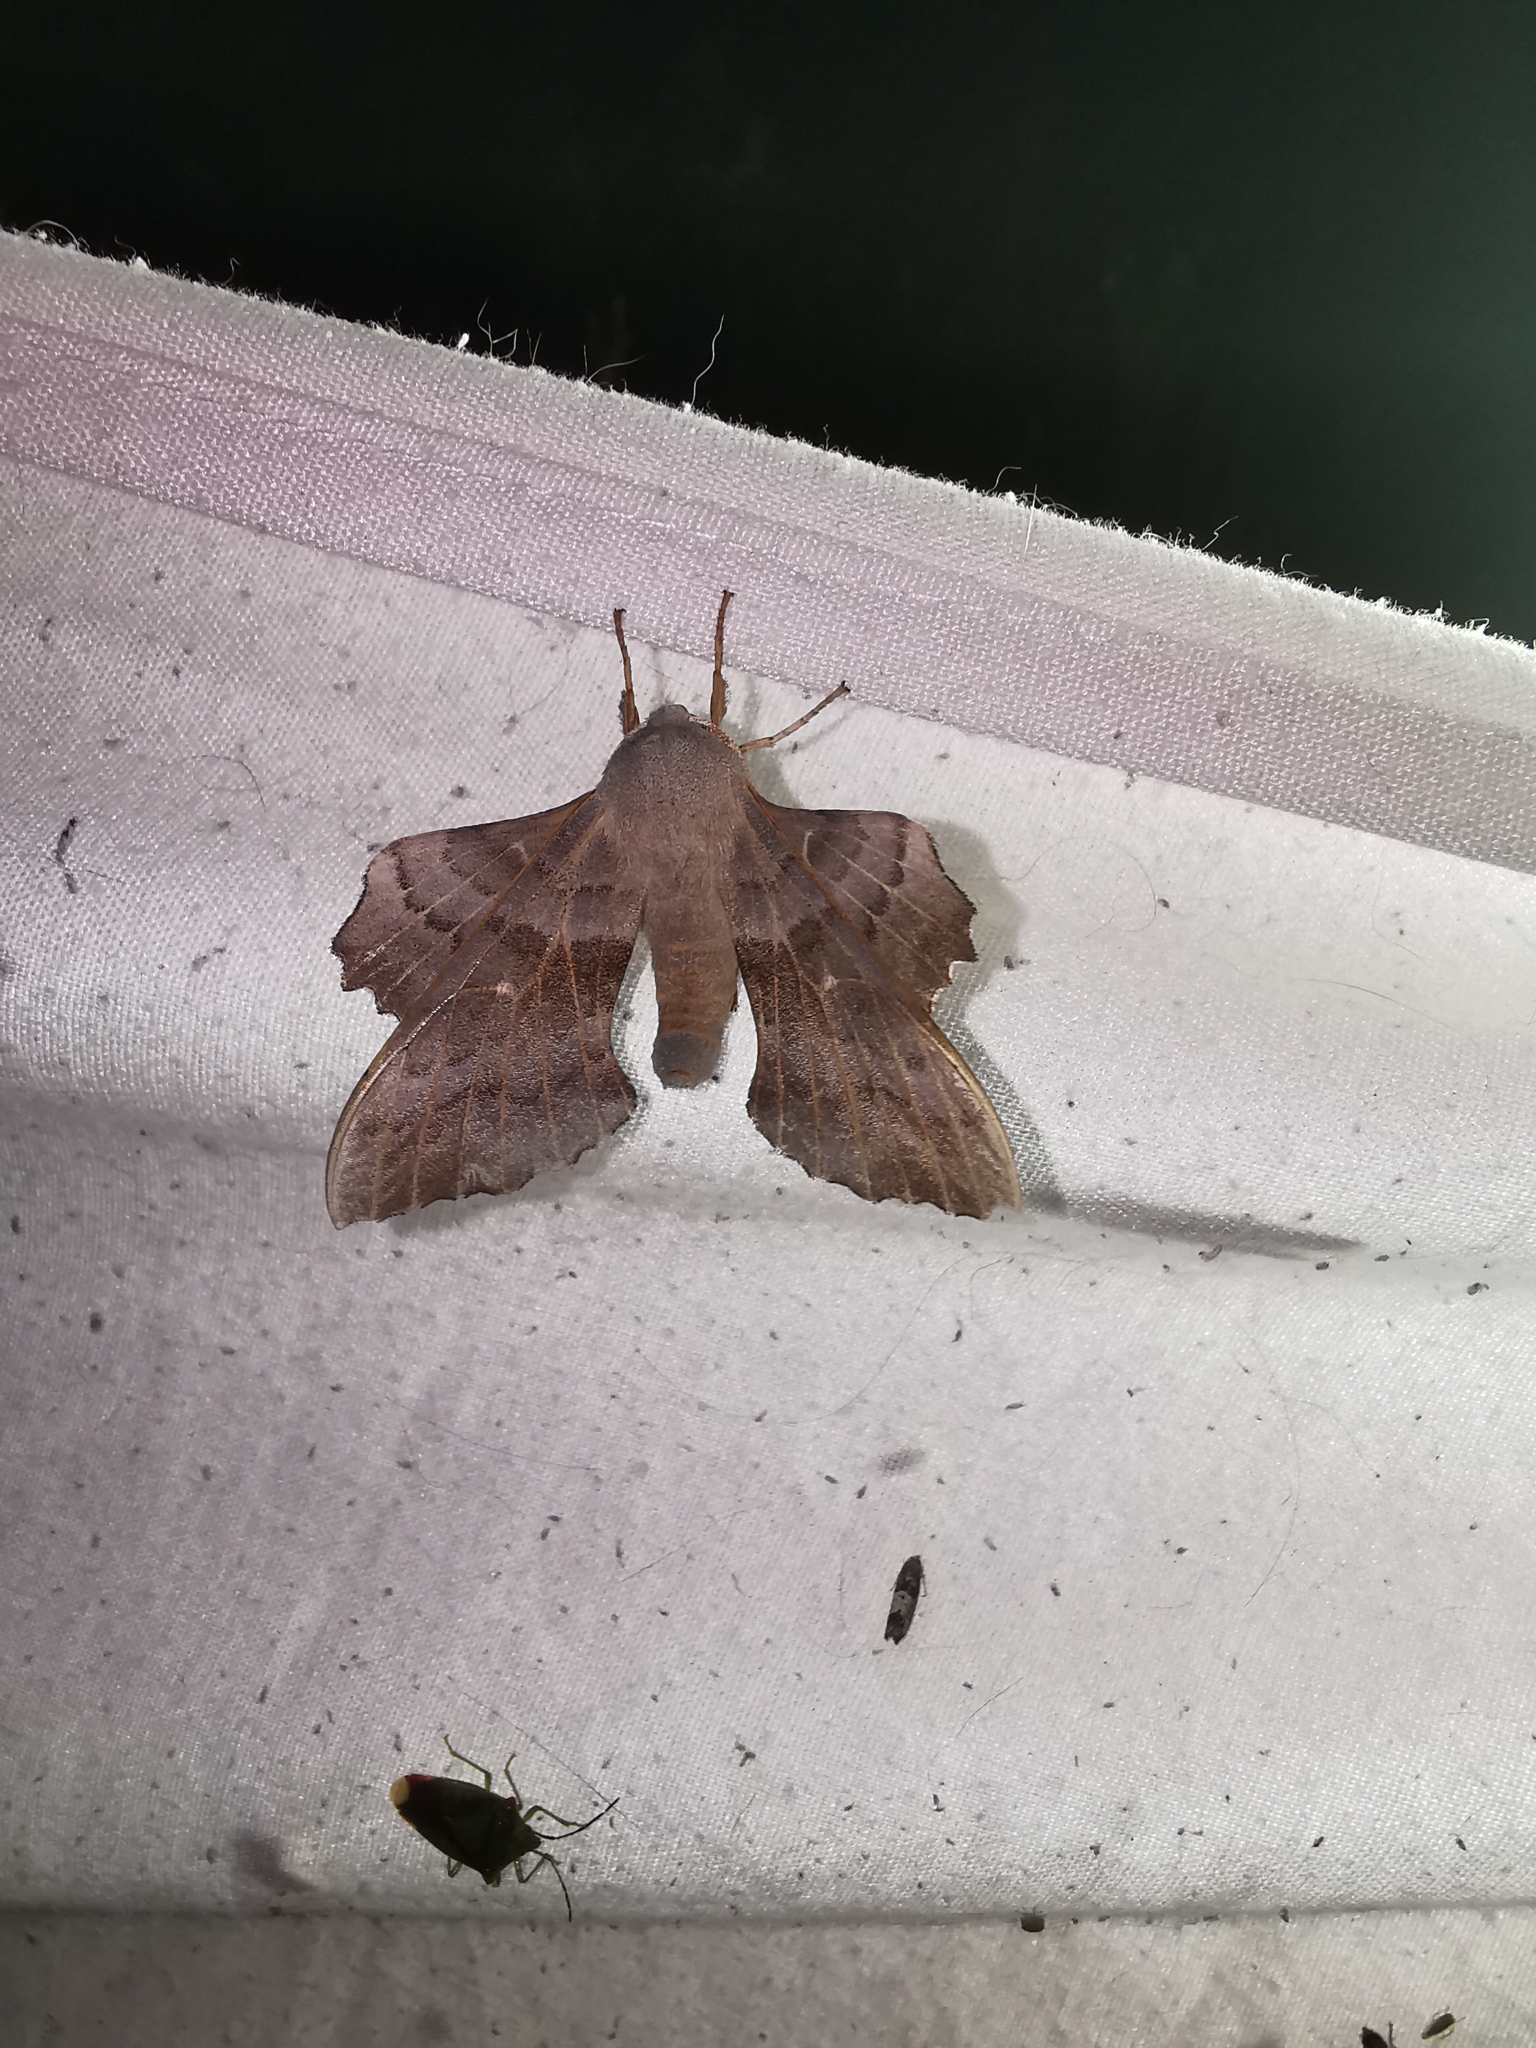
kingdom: Animalia
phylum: Arthropoda
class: Insecta
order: Lepidoptera
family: Sphingidae
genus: Laothoe
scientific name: Laothoe populi
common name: Poplar hawk-moth
